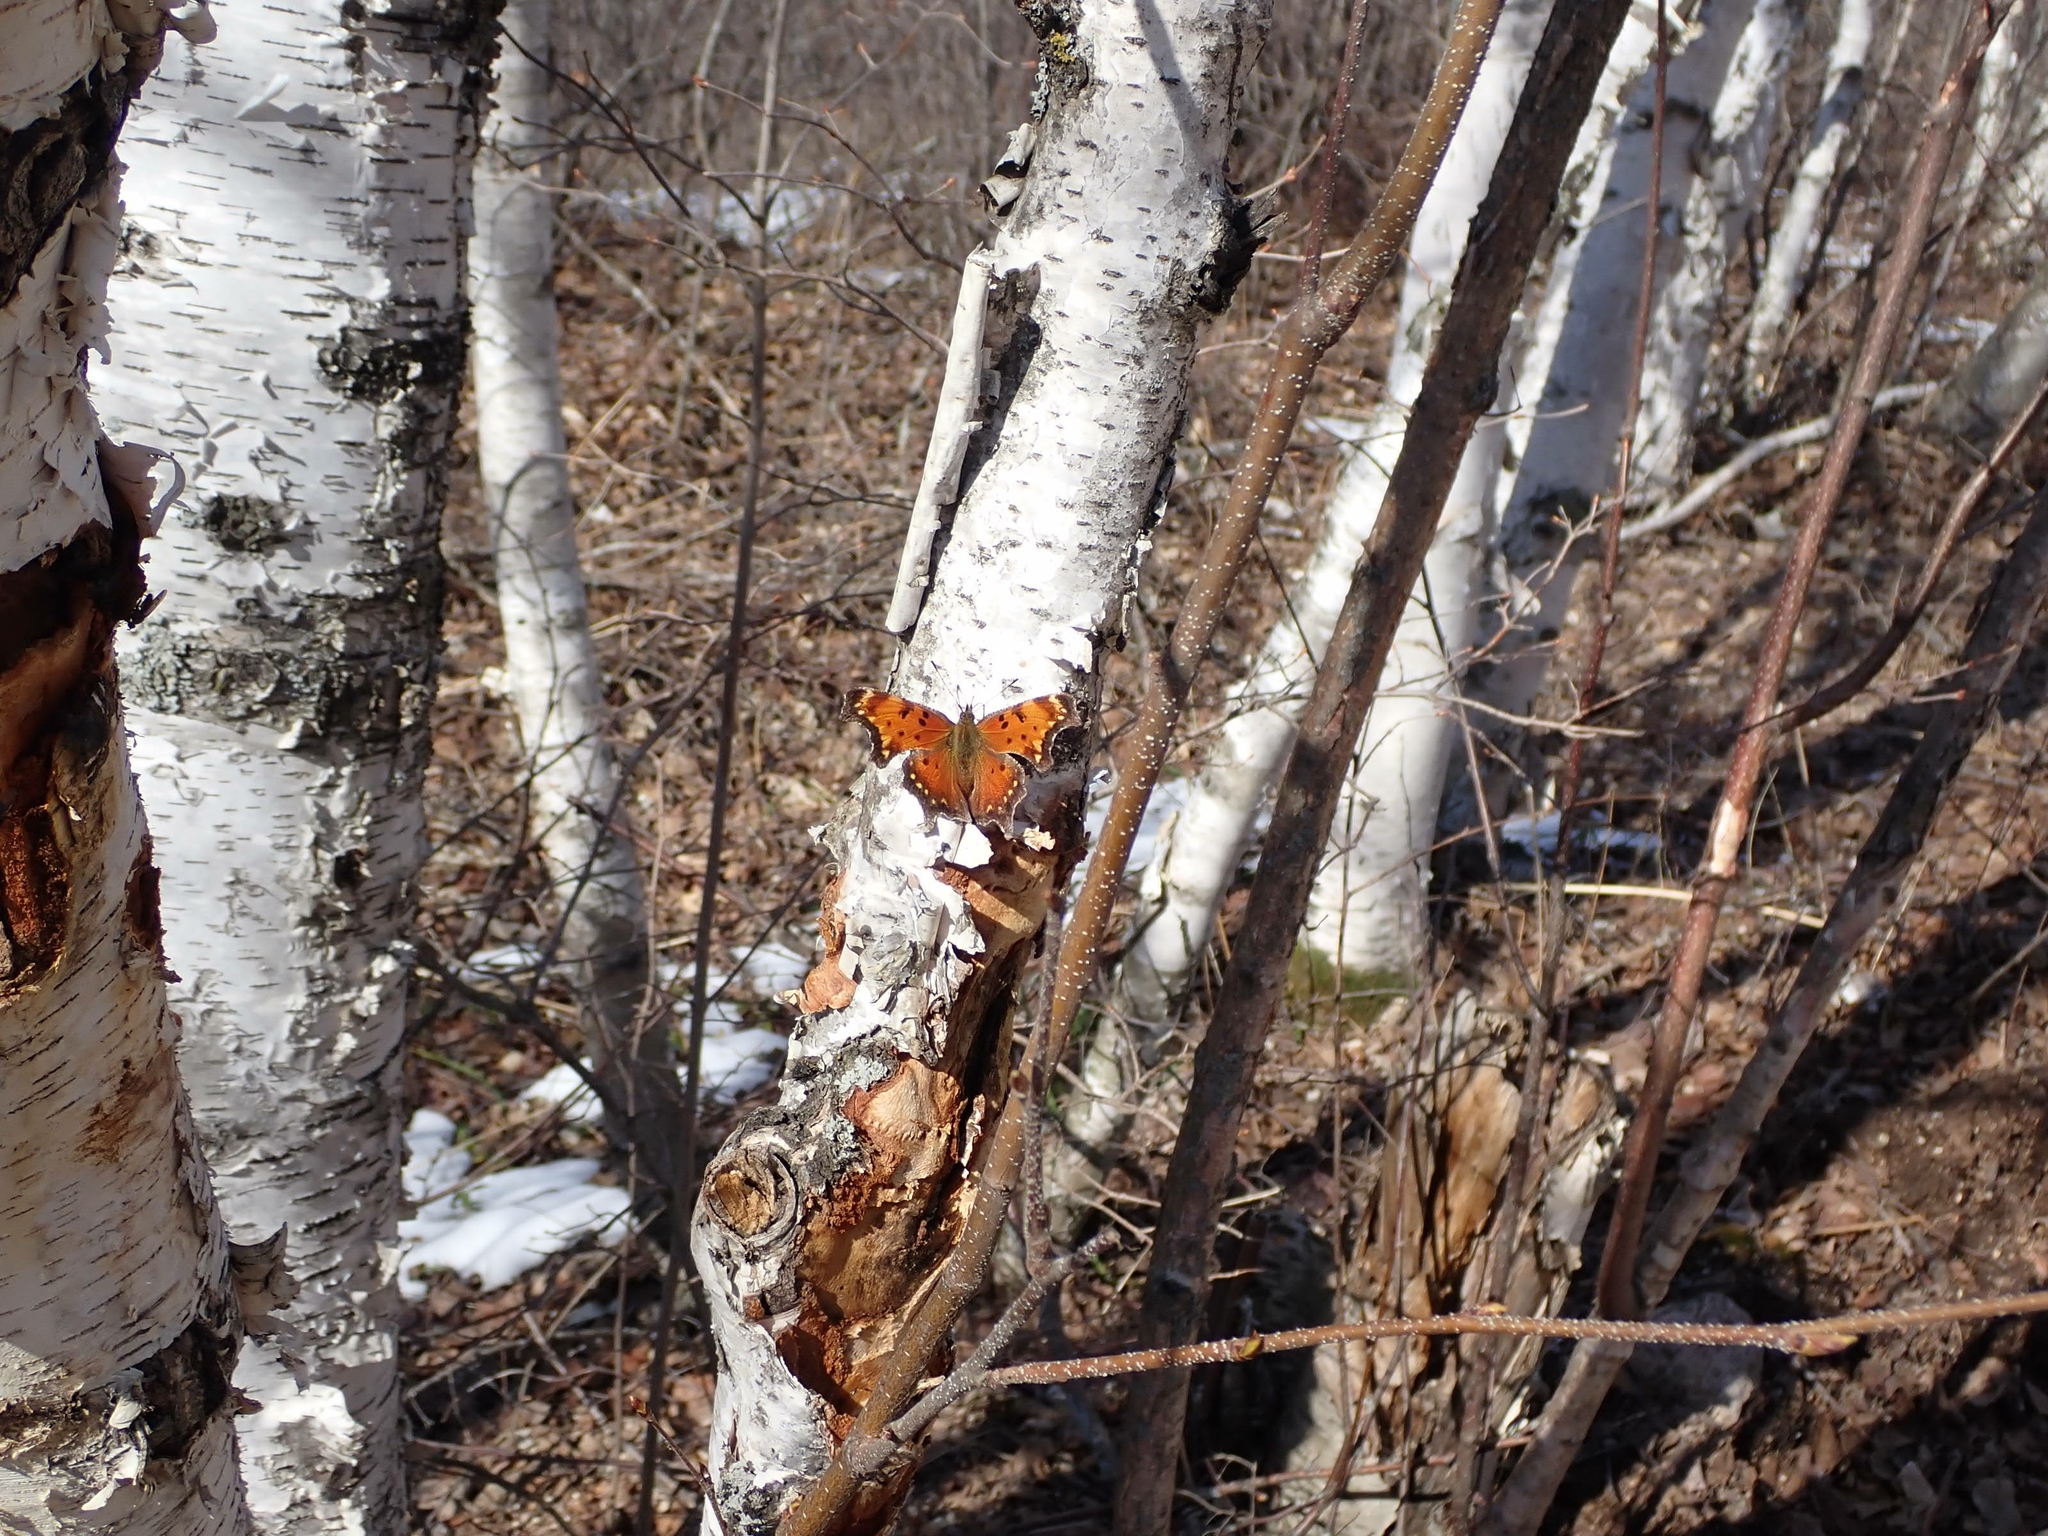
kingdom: Plantae
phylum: Tracheophyta
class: Magnoliopsida
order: Fagales
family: Betulaceae
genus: Betula
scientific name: Betula papyrifera
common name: Paper birch
